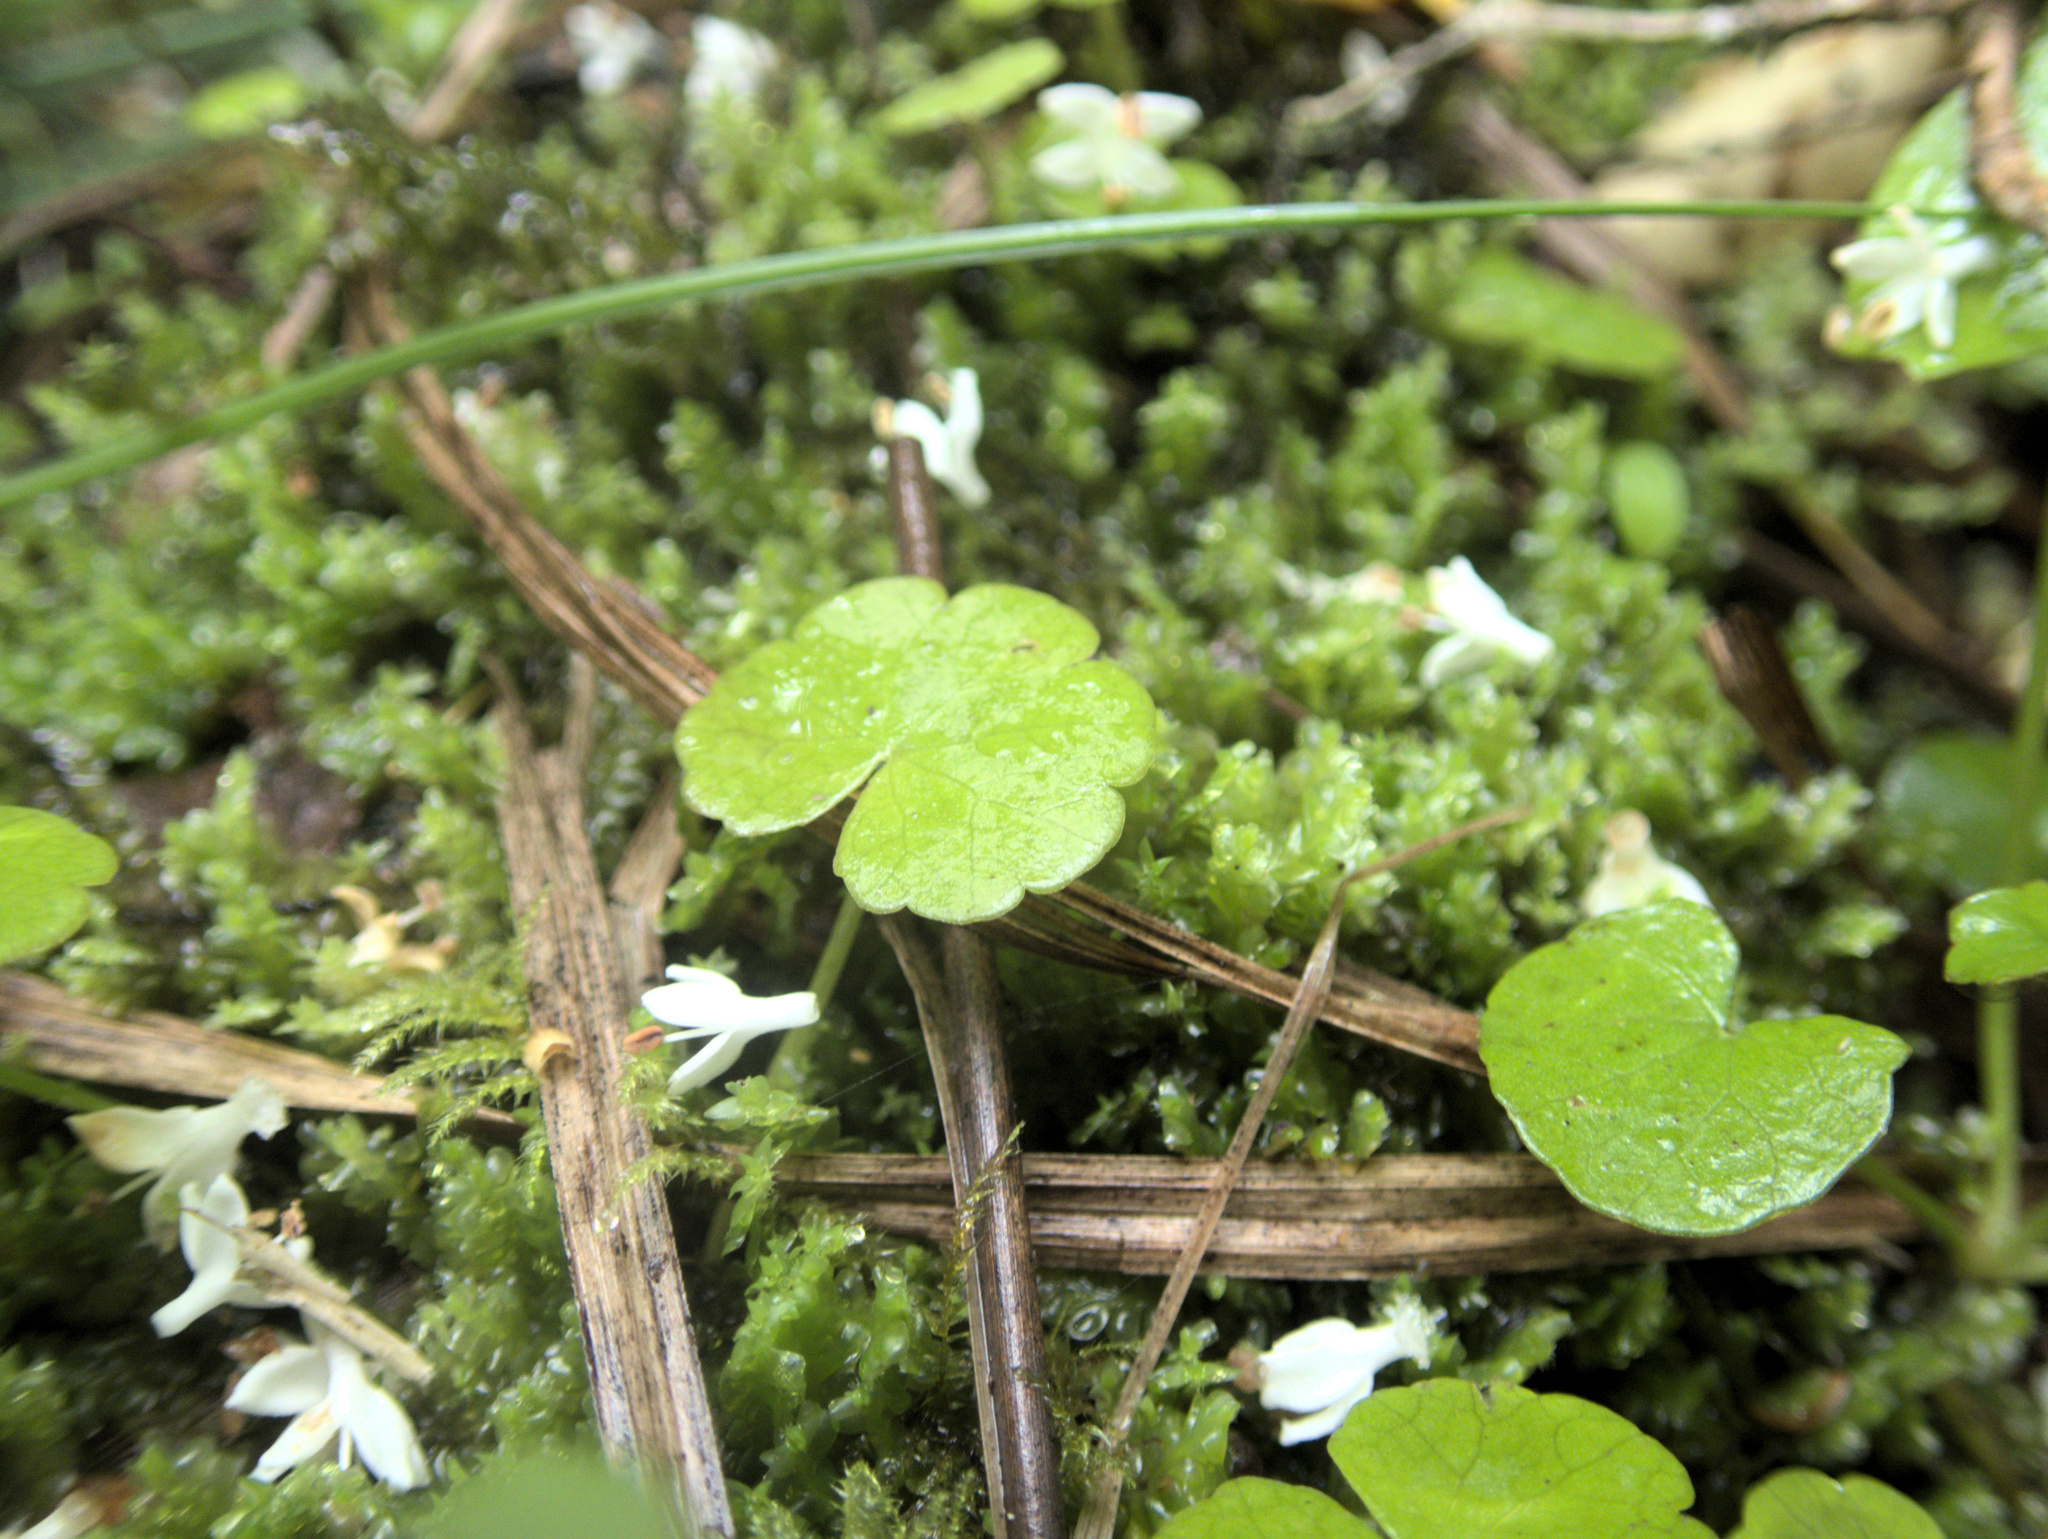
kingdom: Plantae
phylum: Tracheophyta
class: Magnoliopsida
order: Apiales
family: Araliaceae
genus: Hydrocotyle
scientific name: Hydrocotyle pterocarpa
